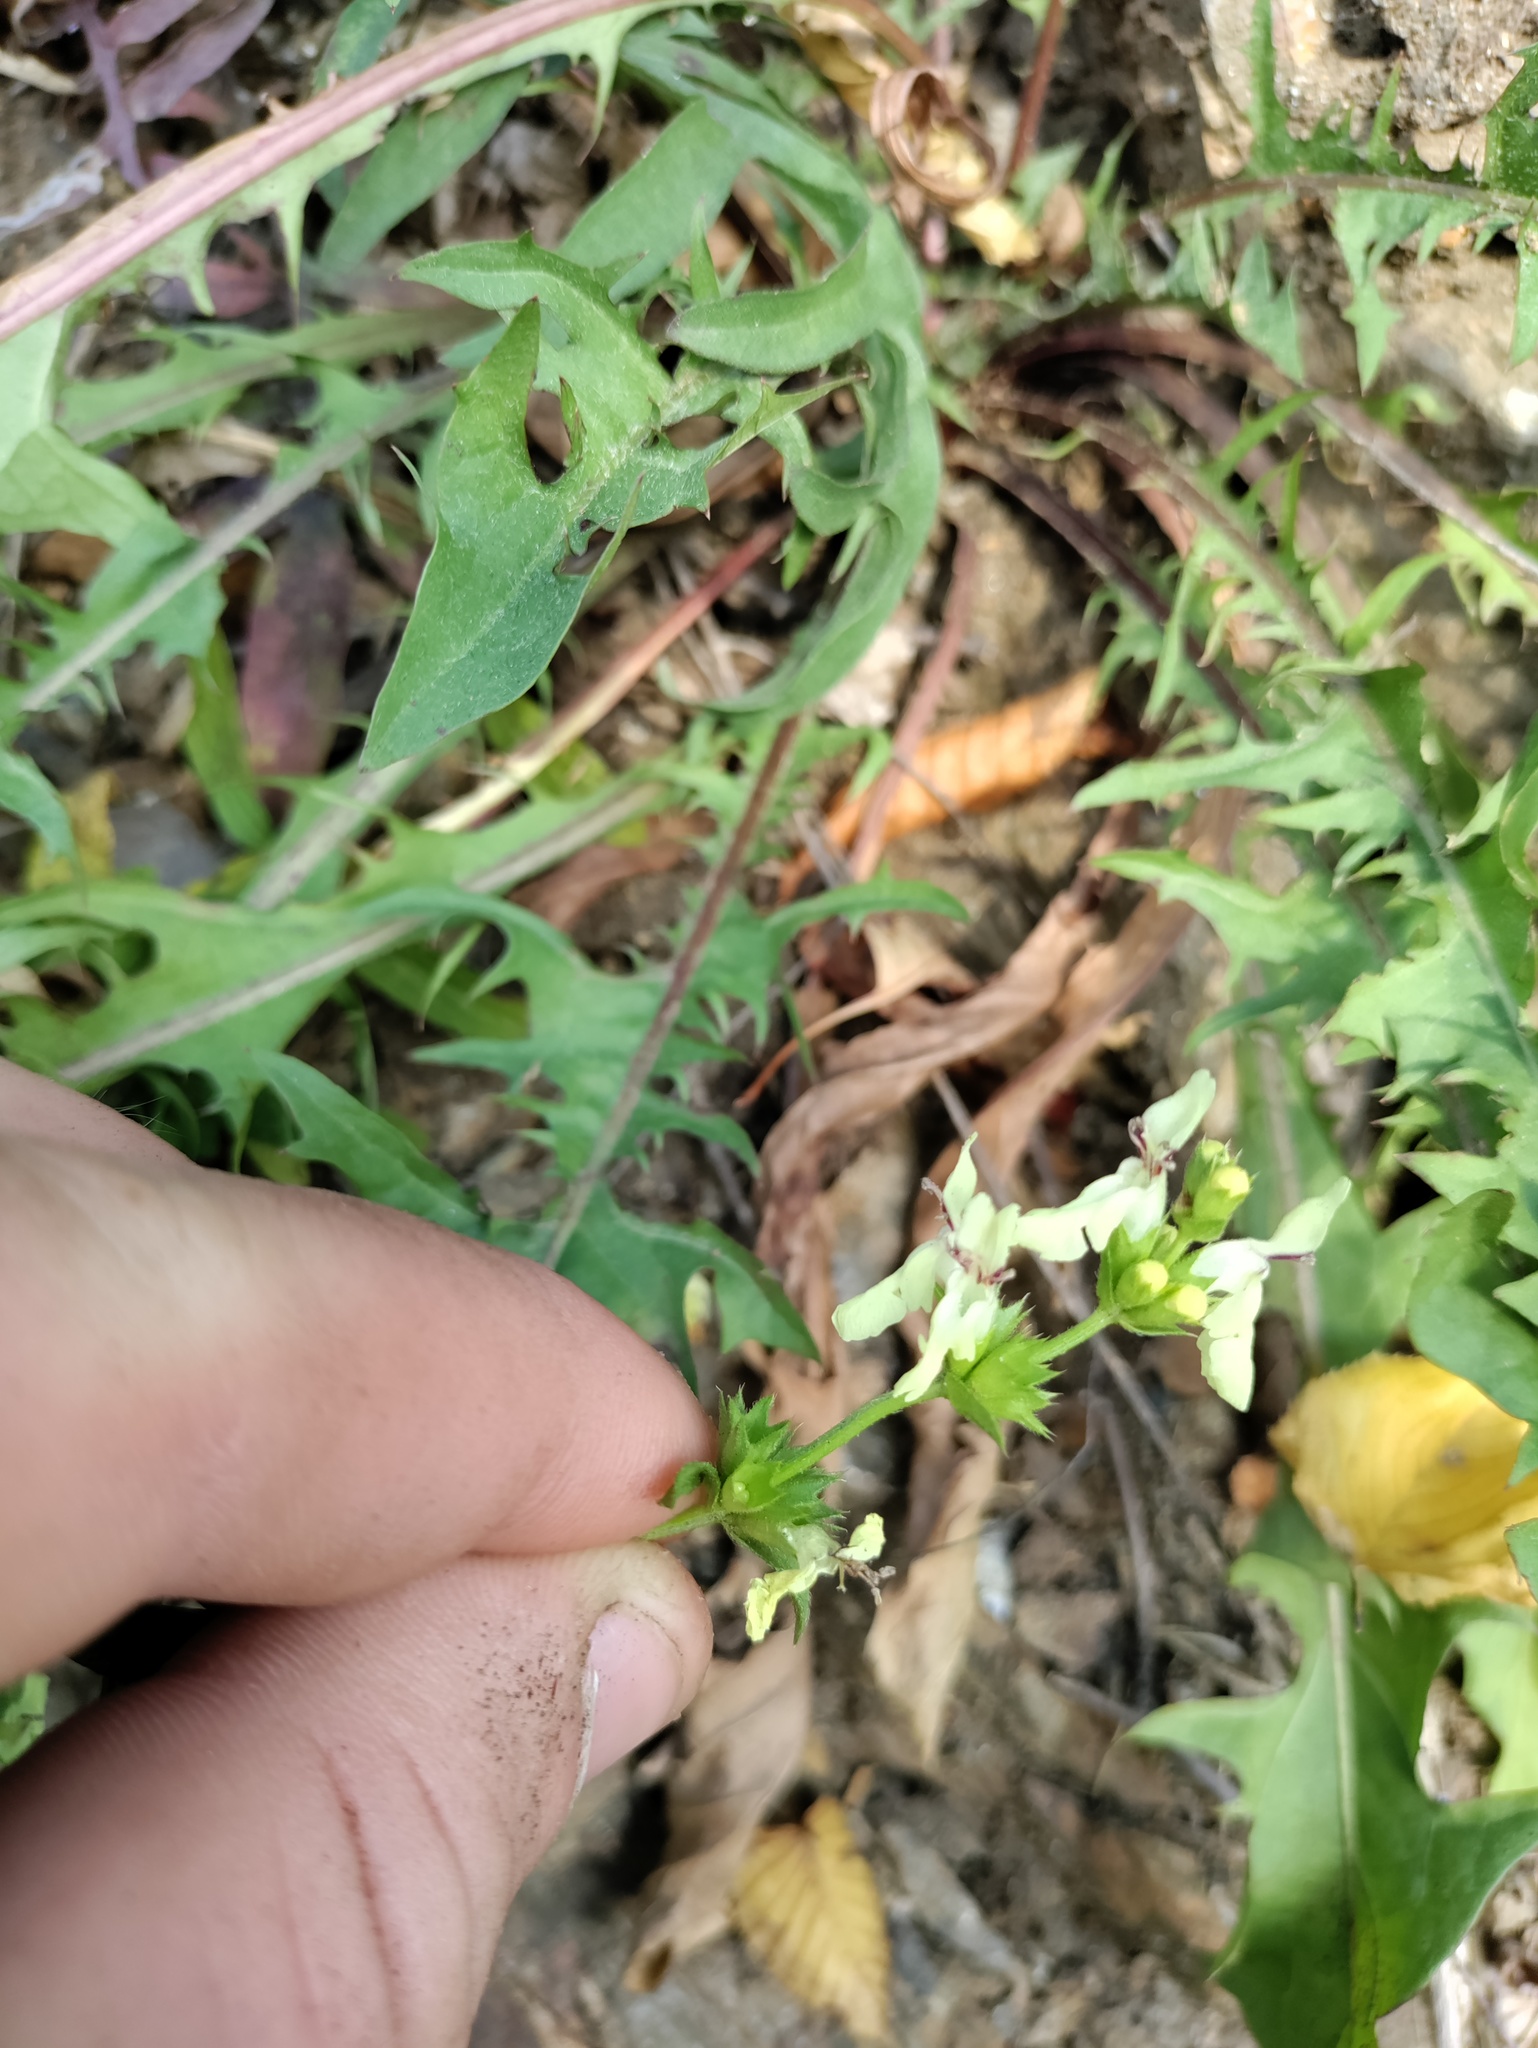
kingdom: Plantae
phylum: Tracheophyta
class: Magnoliopsida
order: Lamiales
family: Lamiaceae
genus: Stachys
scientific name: Stachys recta
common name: Perennial yellow-woundwort
